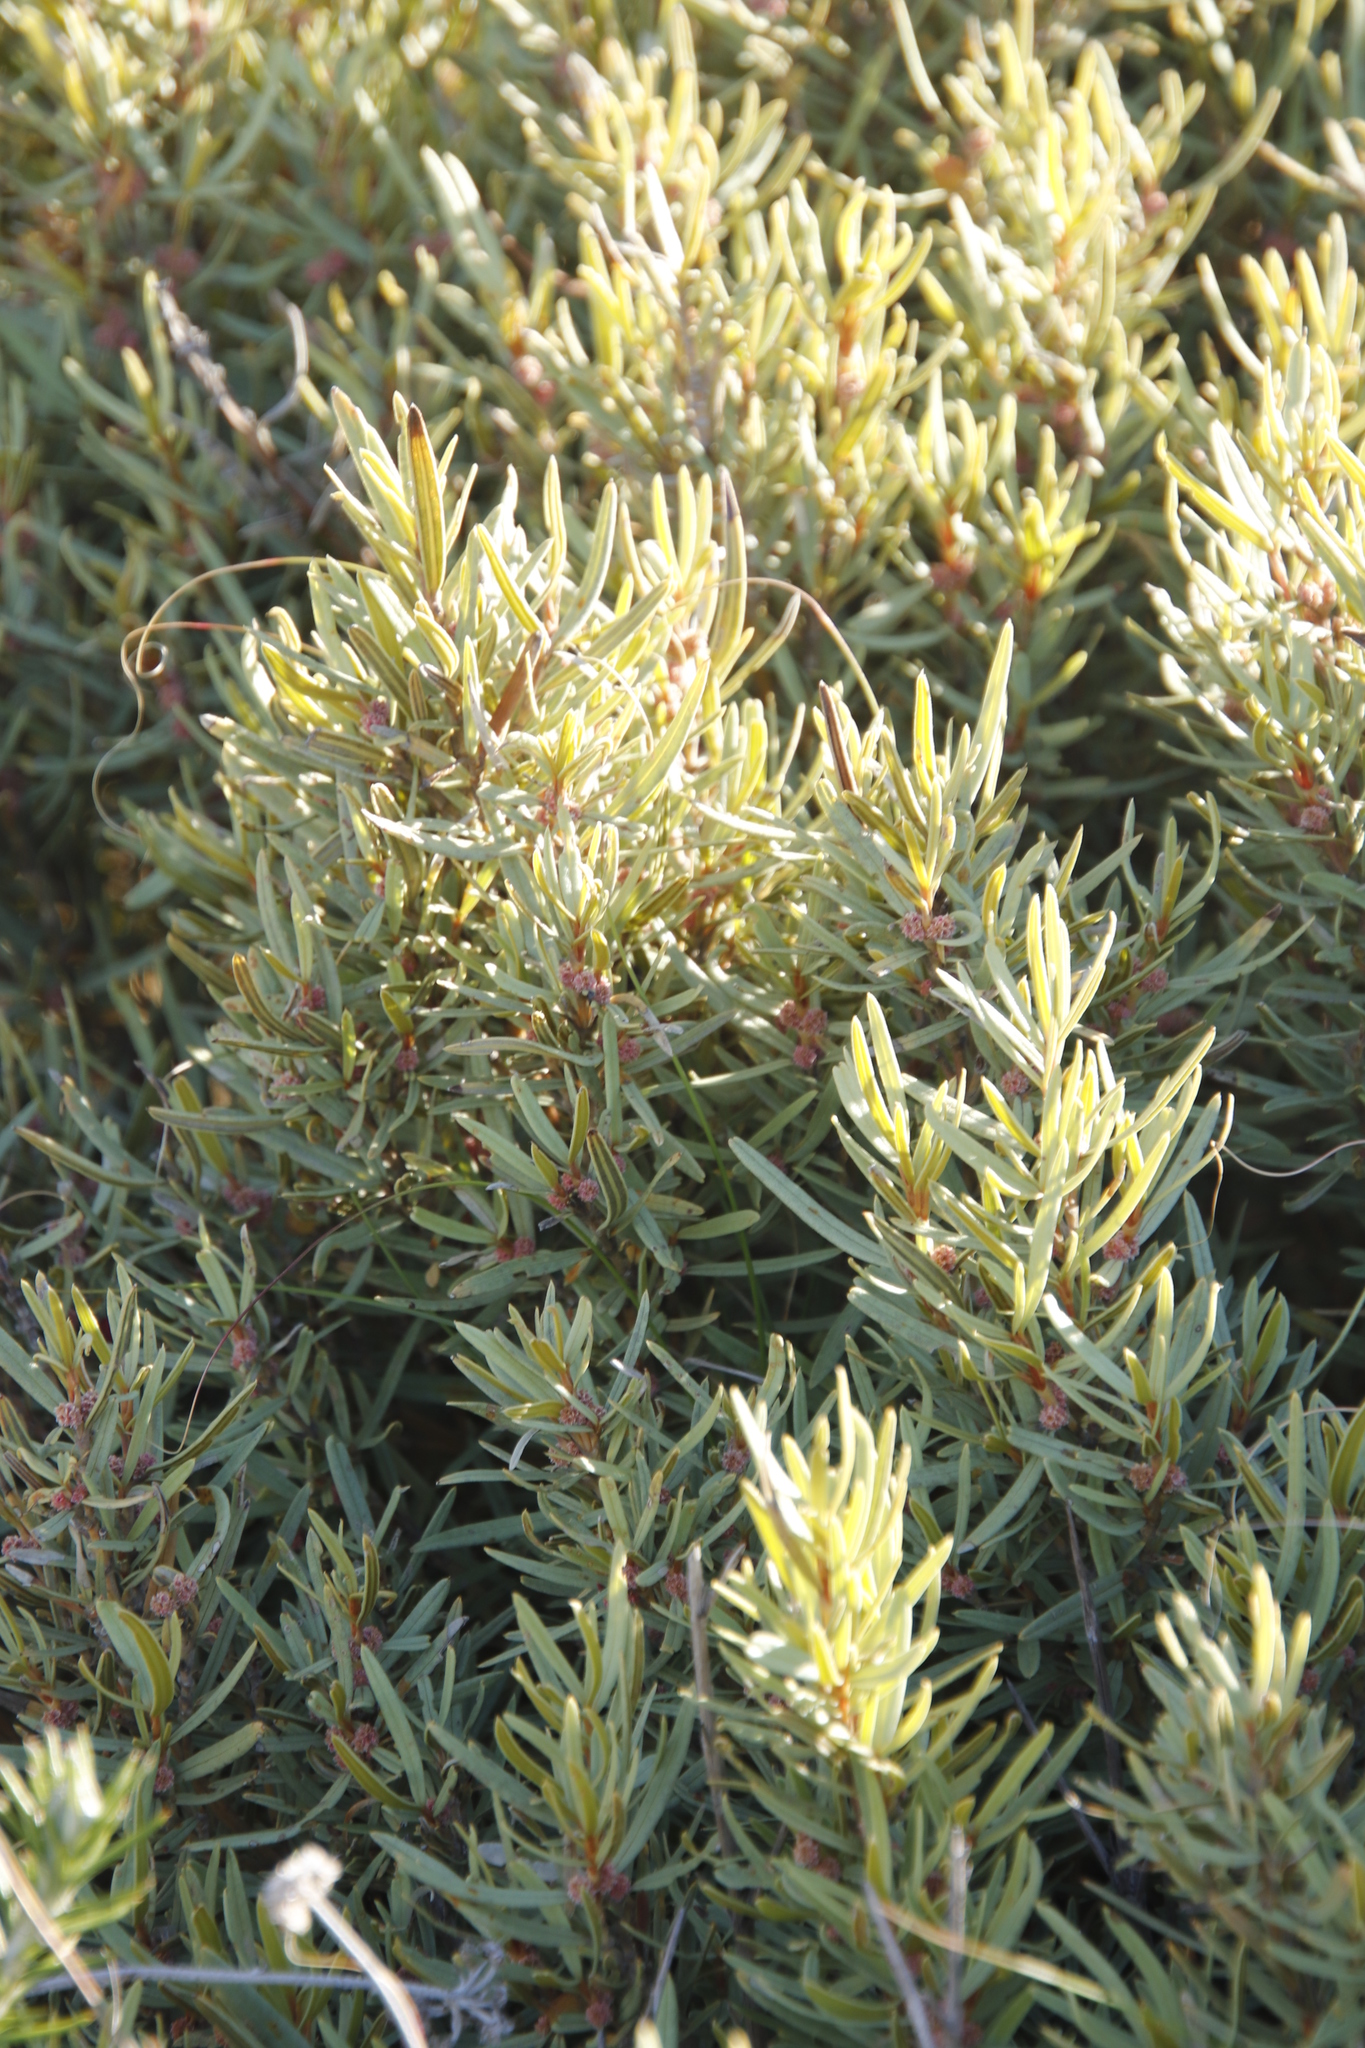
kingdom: Plantae
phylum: Tracheophyta
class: Magnoliopsida
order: Cornales
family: Grubbiaceae
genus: Grubbia
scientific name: Grubbia tomentosa
